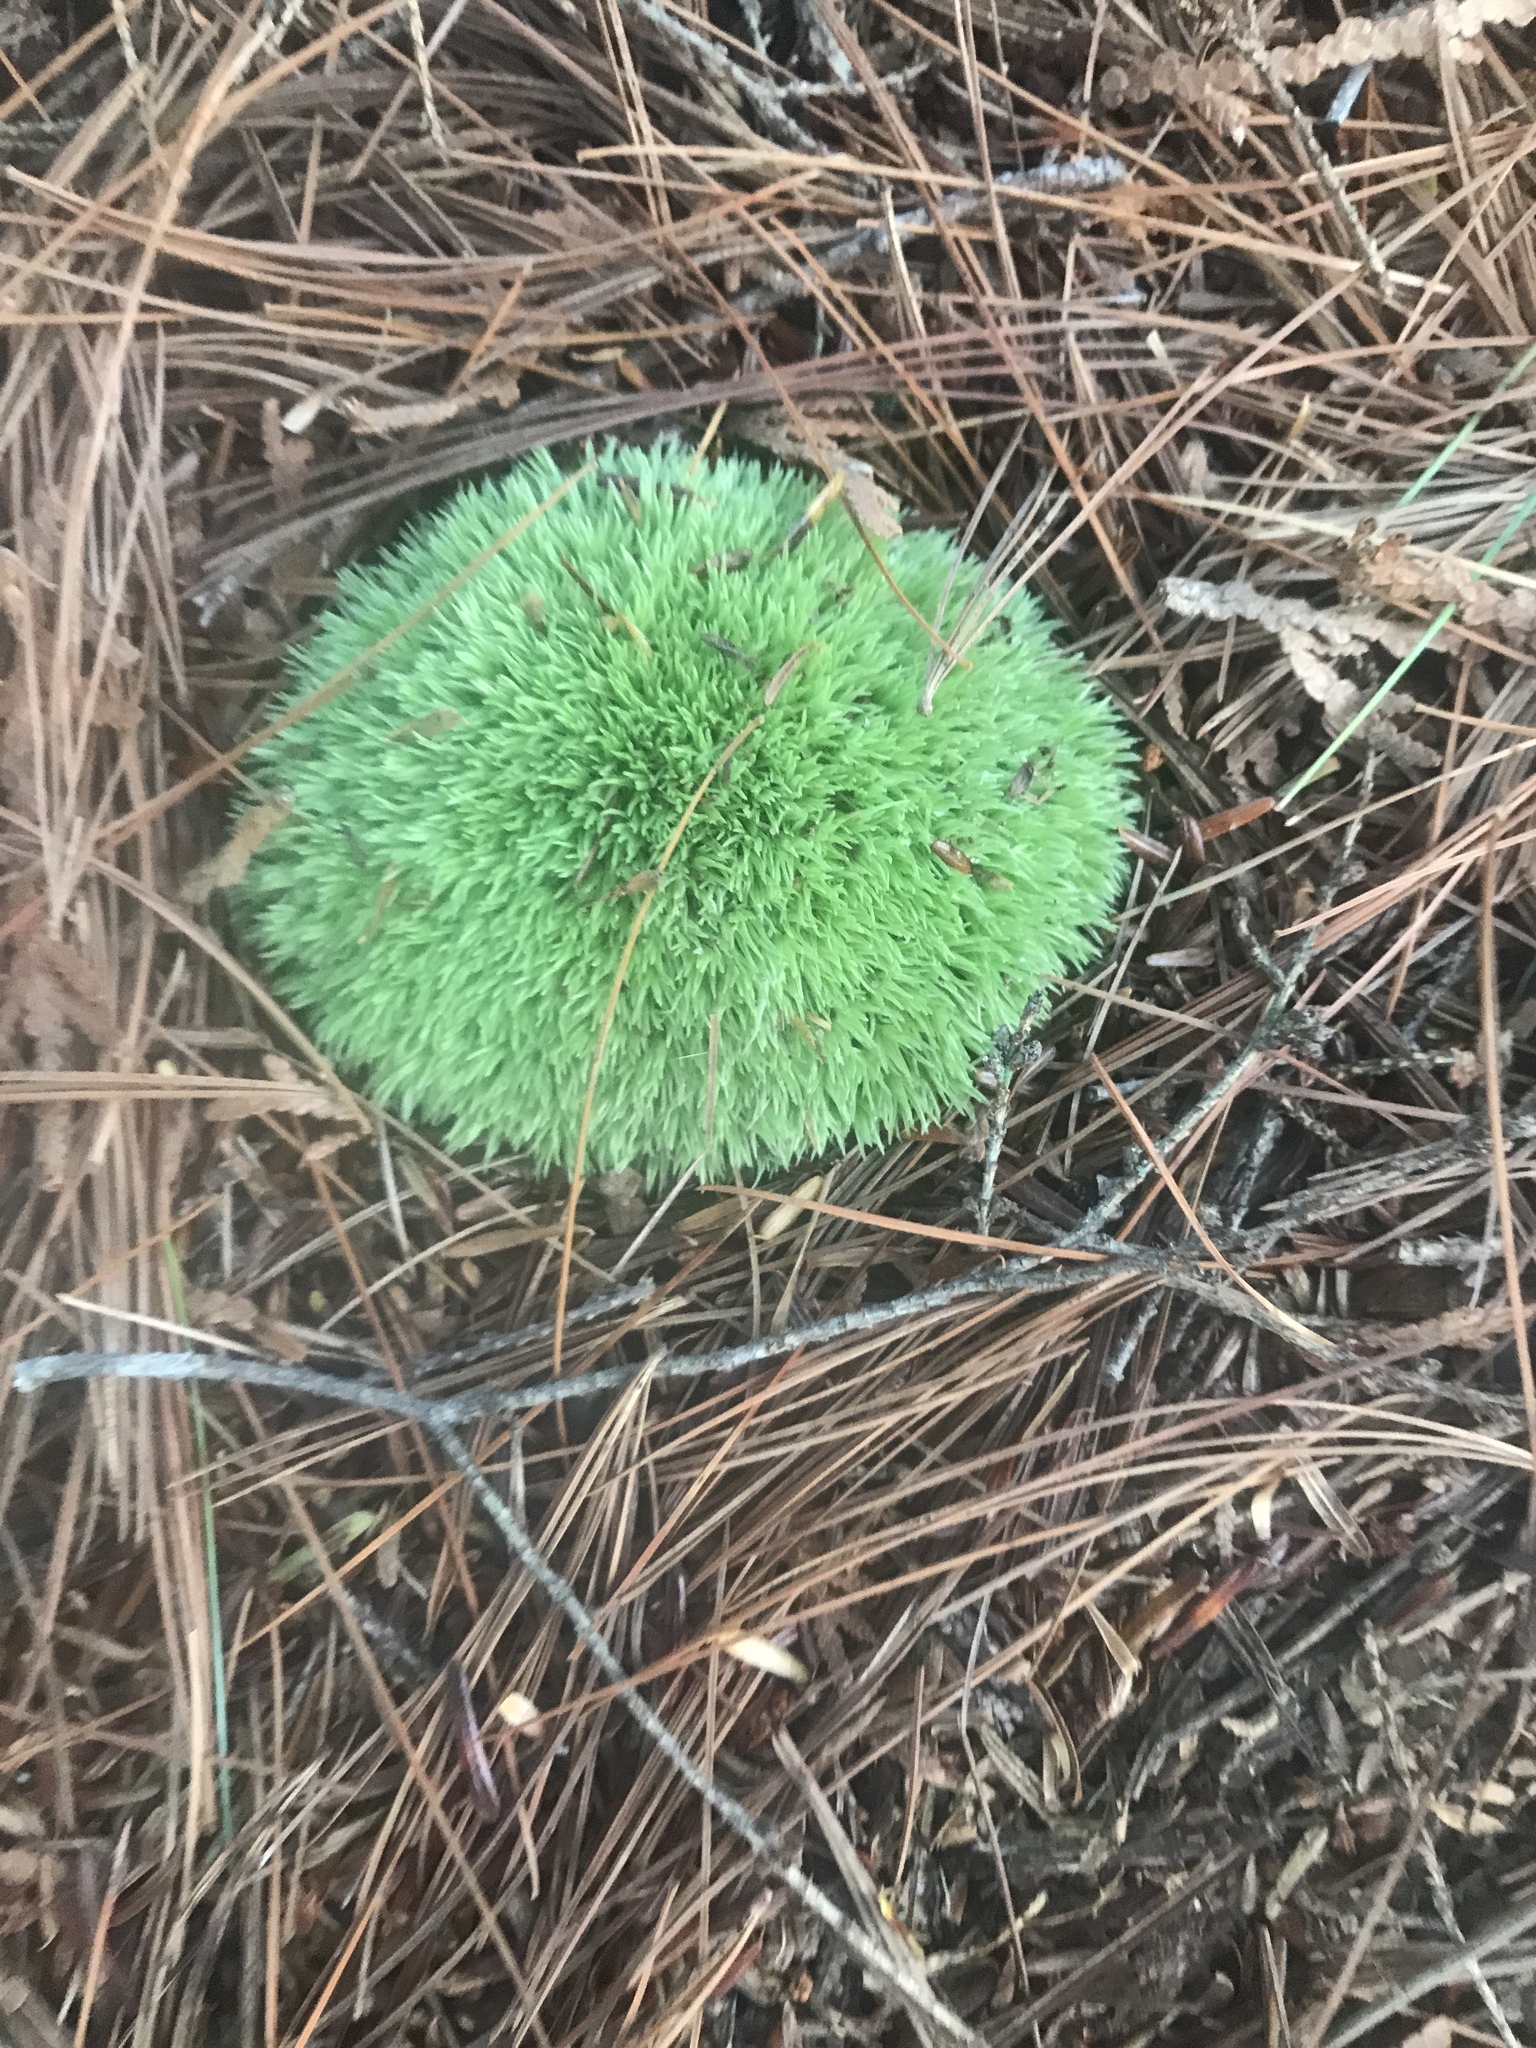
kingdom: Plantae
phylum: Bryophyta
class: Bryopsida
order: Dicranales
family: Leucobryaceae
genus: Leucobryum
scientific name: Leucobryum glaucum
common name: Large white-moss
